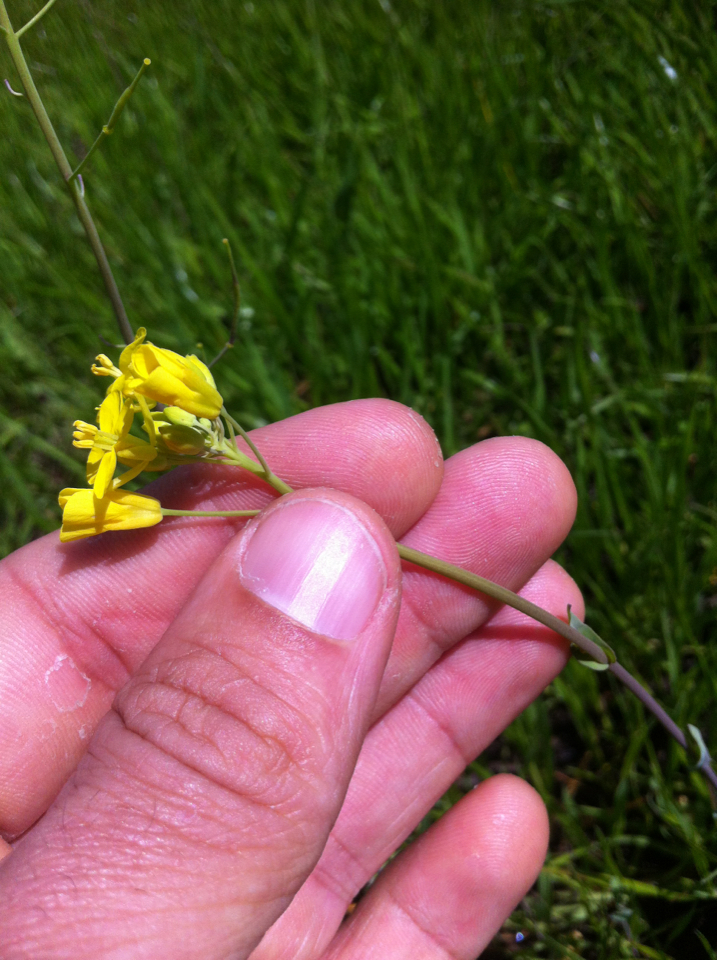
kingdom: Plantae
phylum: Tracheophyta
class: Magnoliopsida
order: Brassicales
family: Brassicaceae
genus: Brassica
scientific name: Brassica rapa
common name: Field mustard
